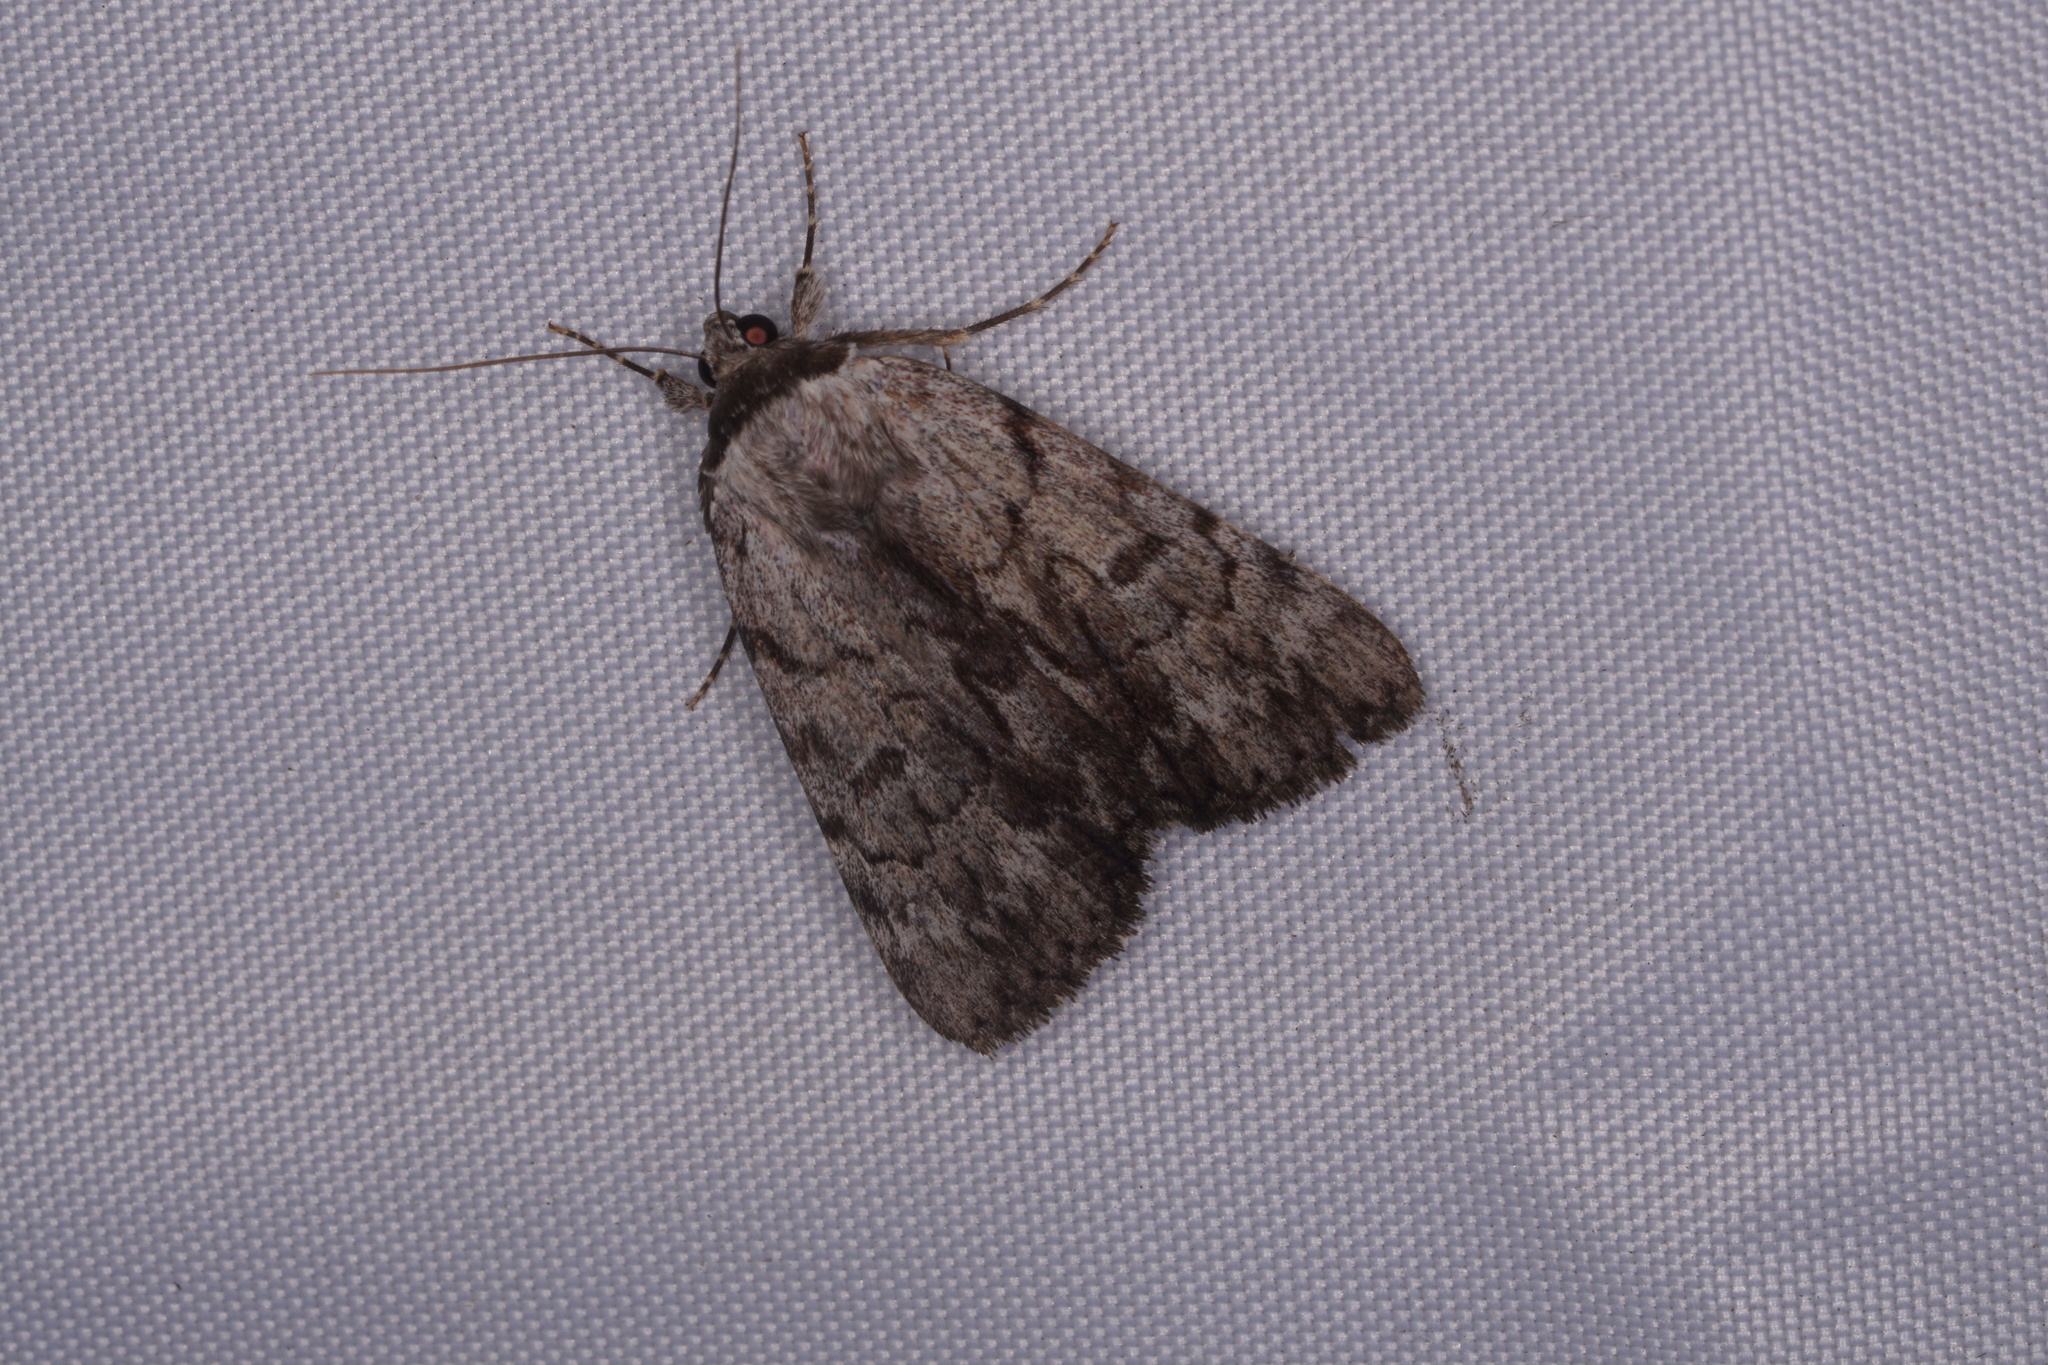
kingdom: Animalia
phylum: Arthropoda
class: Insecta
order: Lepidoptera
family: Erebidae
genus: Catocala
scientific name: Catocala sordida
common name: Sordid underwing
